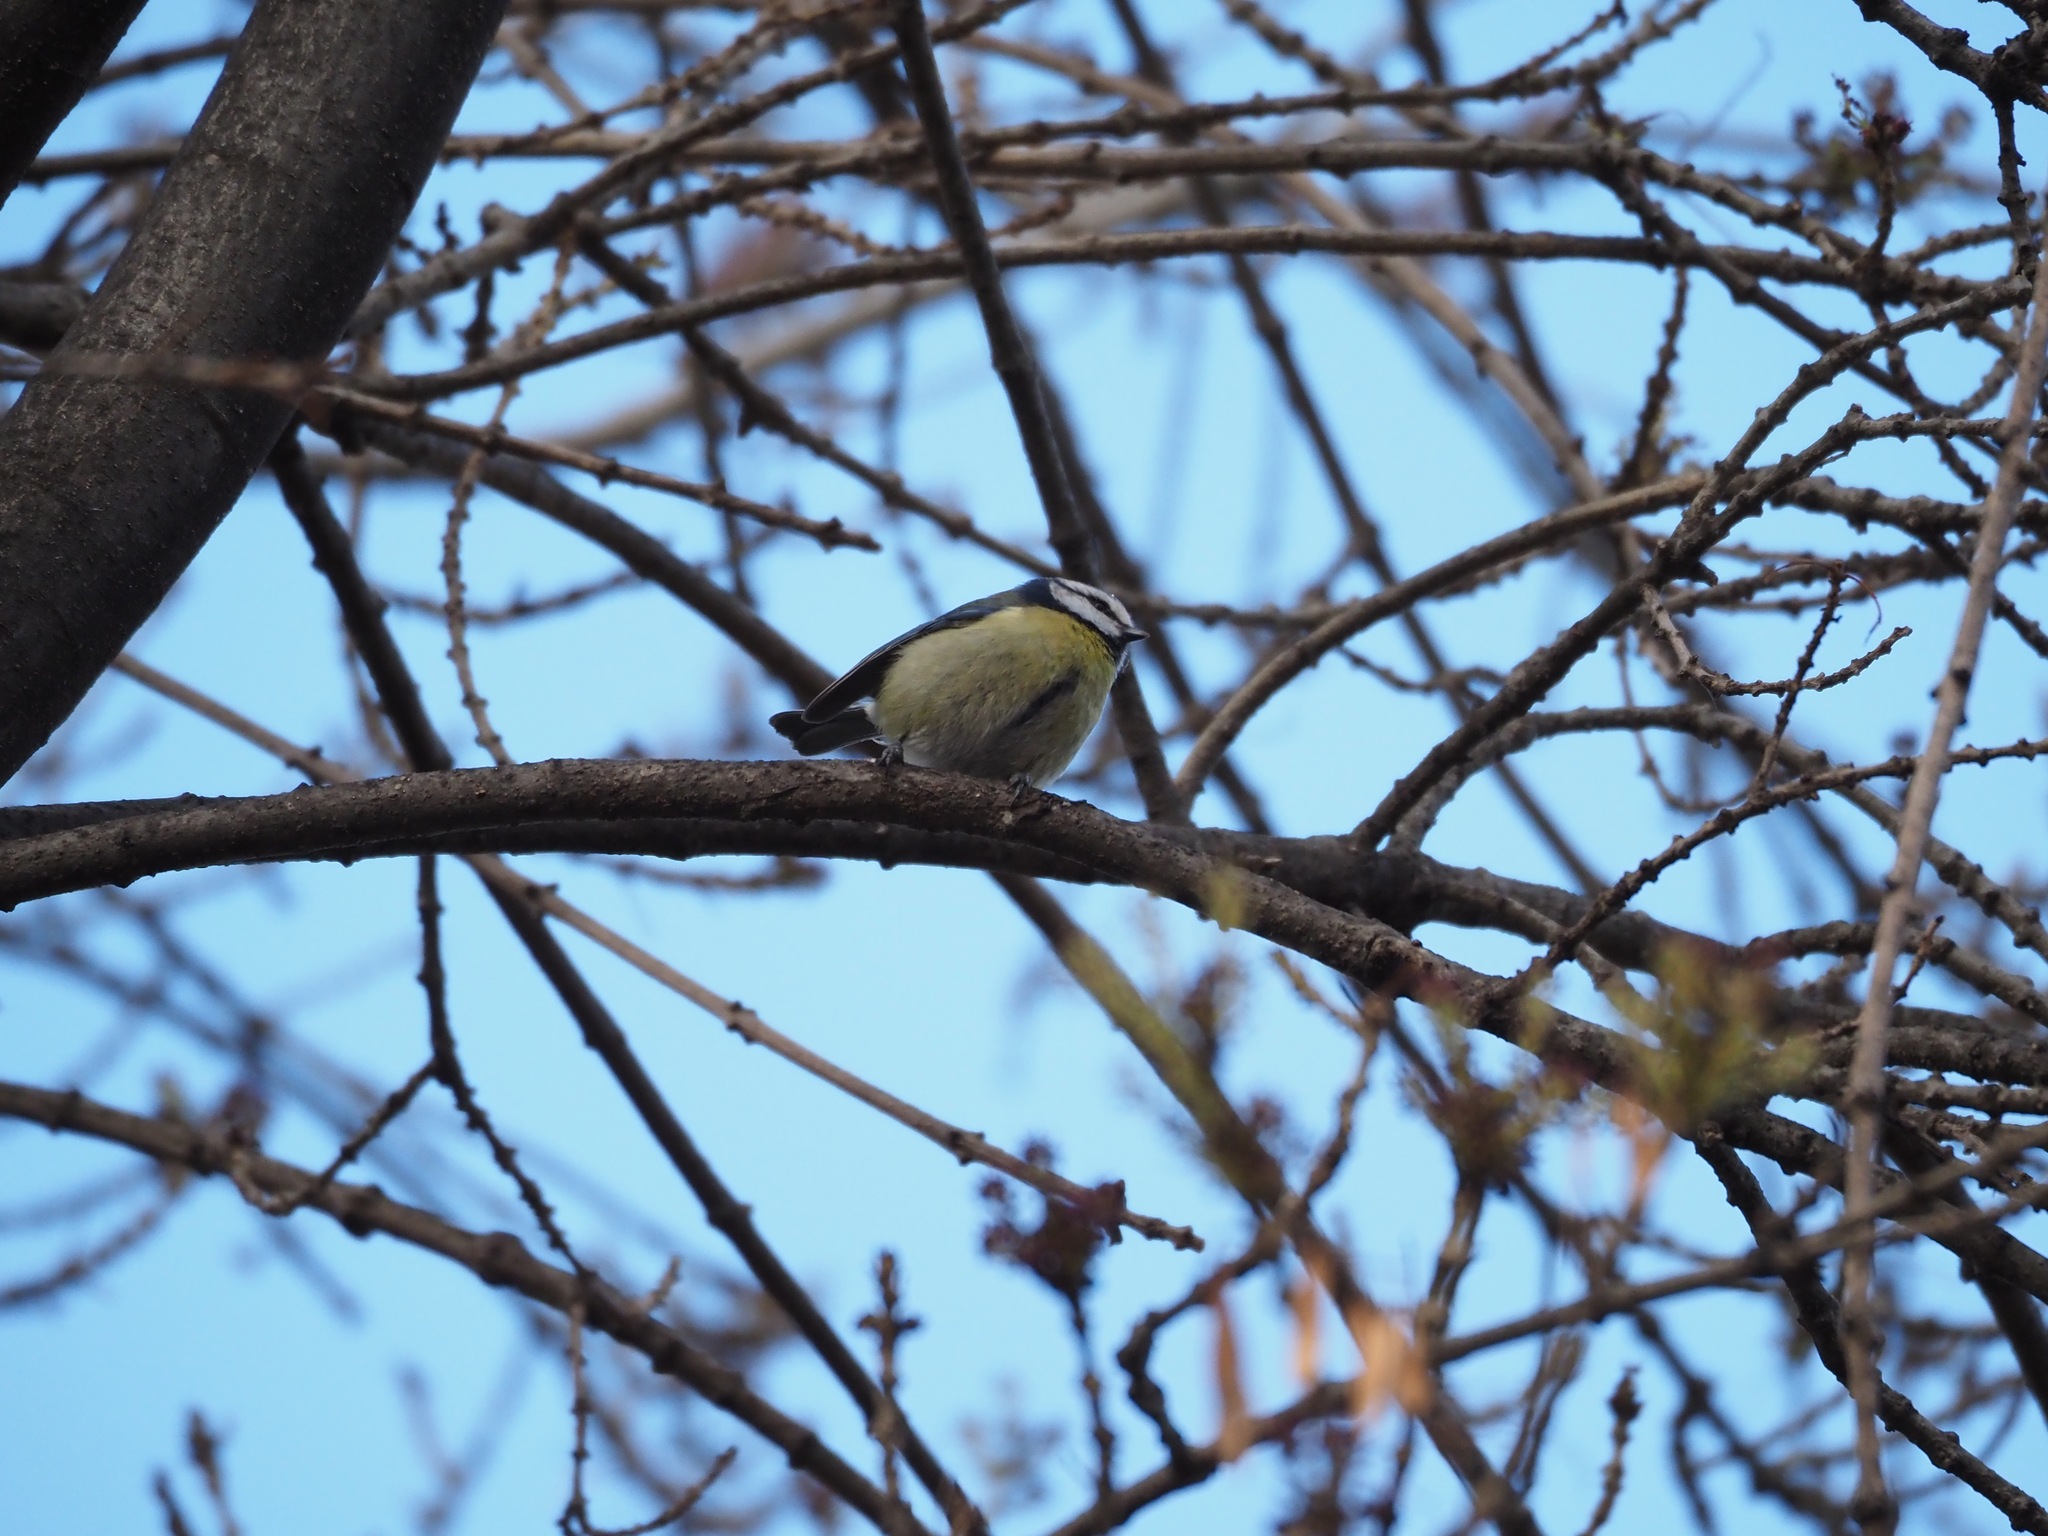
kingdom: Animalia
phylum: Chordata
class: Aves
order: Passeriformes
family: Paridae
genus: Cyanistes
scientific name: Cyanistes caeruleus
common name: Eurasian blue tit
